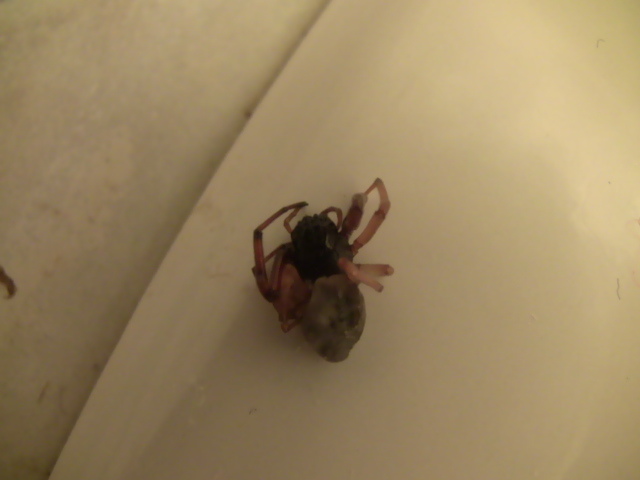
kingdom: Animalia
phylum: Arthropoda
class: Arachnida
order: Araneae
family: Trachelidae
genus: Trachelas
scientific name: Trachelas tranquillus
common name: Broad-faced sac spider
